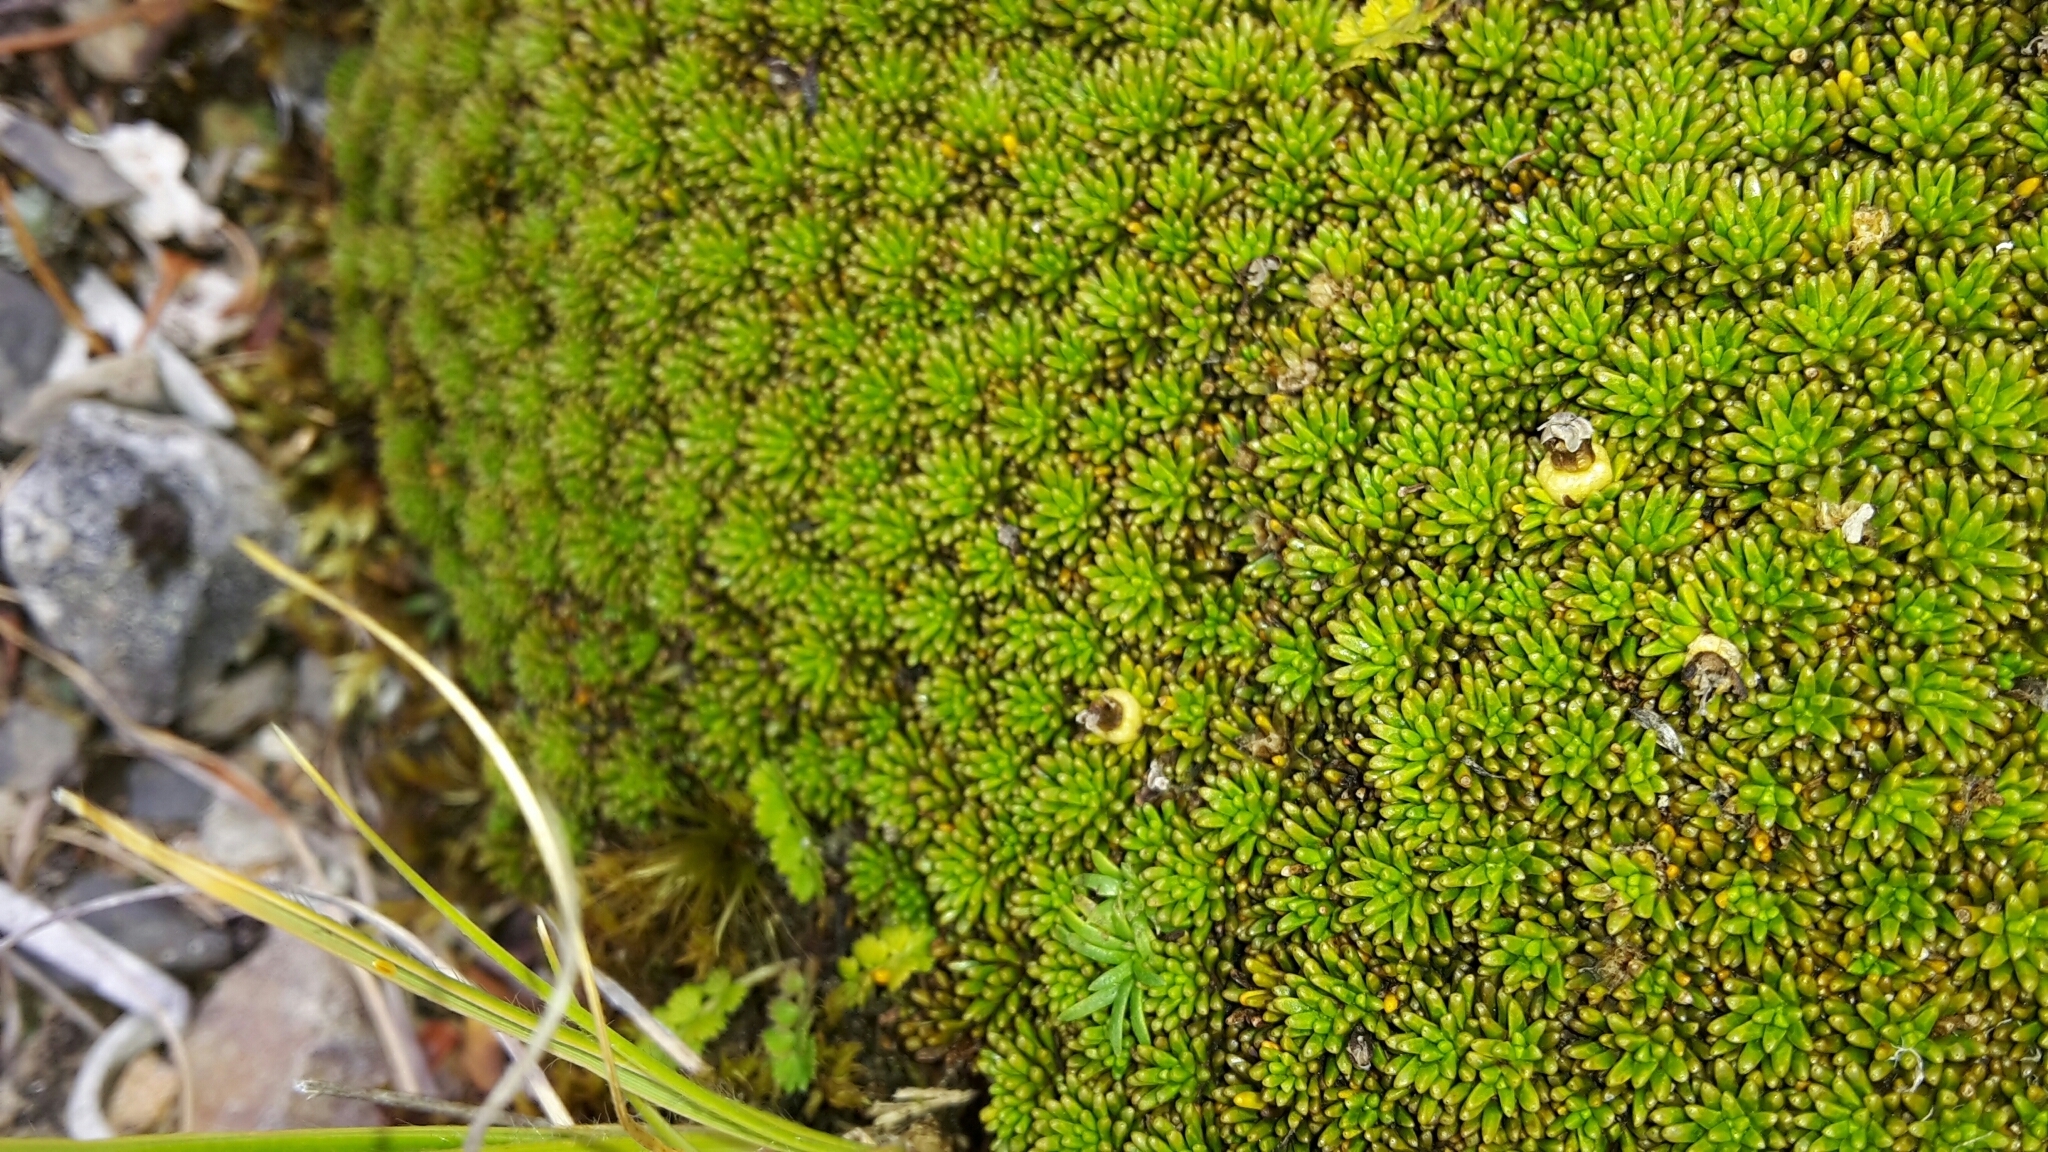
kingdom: Plantae
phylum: Tracheophyta
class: Magnoliopsida
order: Asterales
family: Stylidiaceae
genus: Phyllachne
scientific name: Phyllachne colensoi
